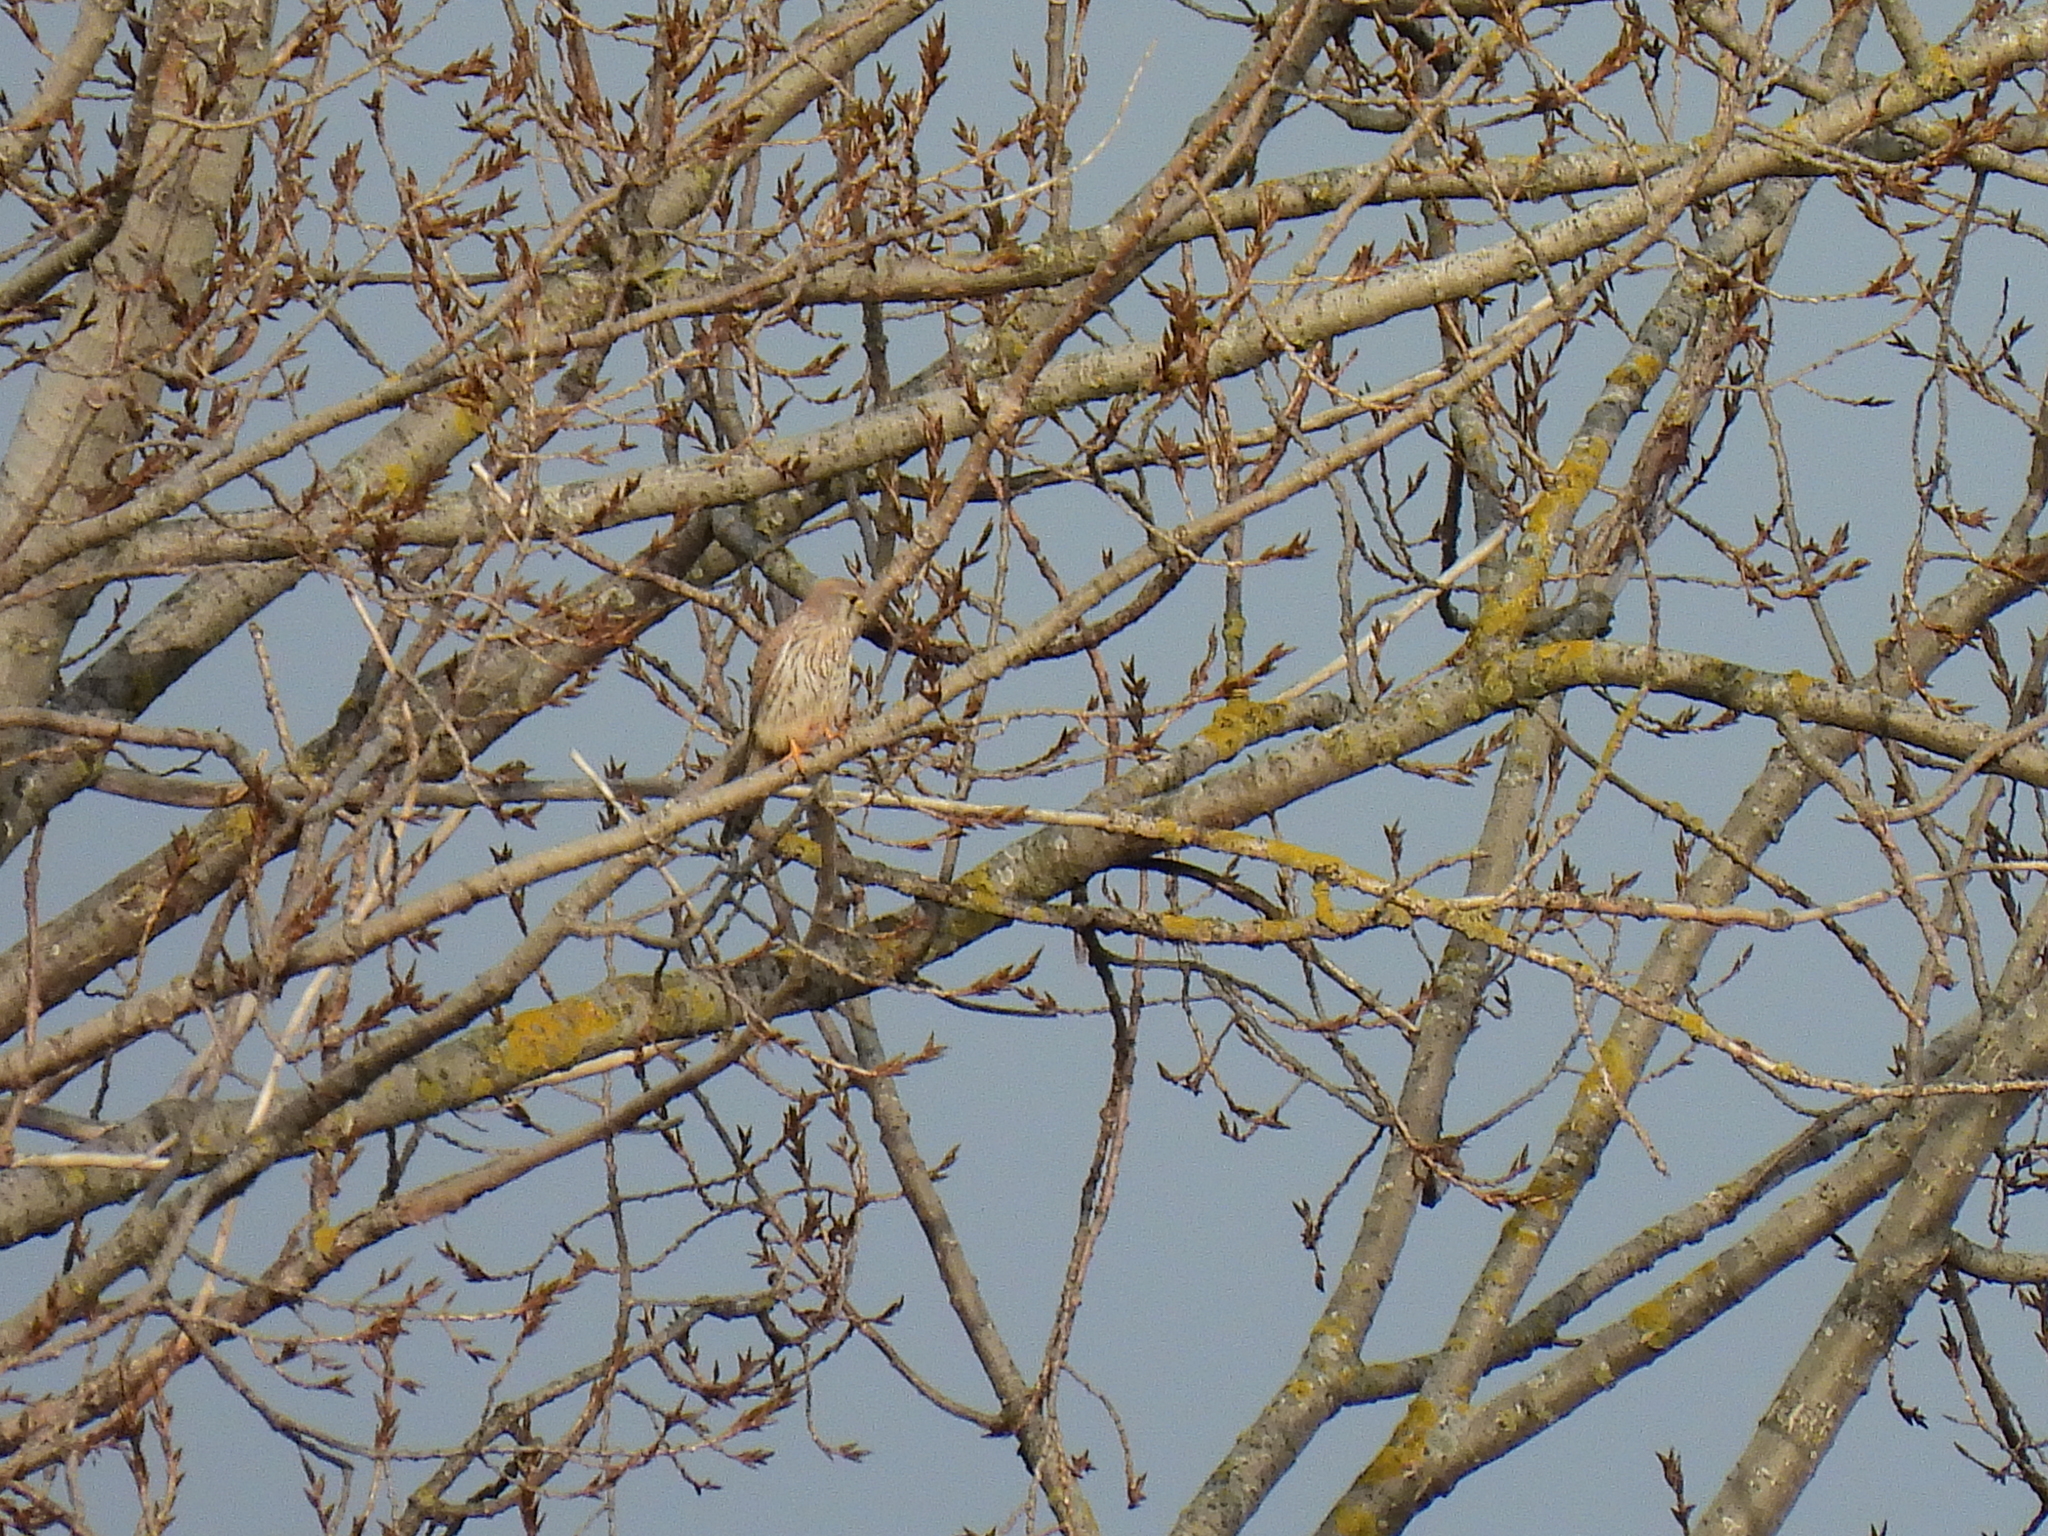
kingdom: Animalia
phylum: Chordata
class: Aves
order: Falconiformes
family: Falconidae
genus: Falco
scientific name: Falco tinnunculus
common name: Common kestrel
